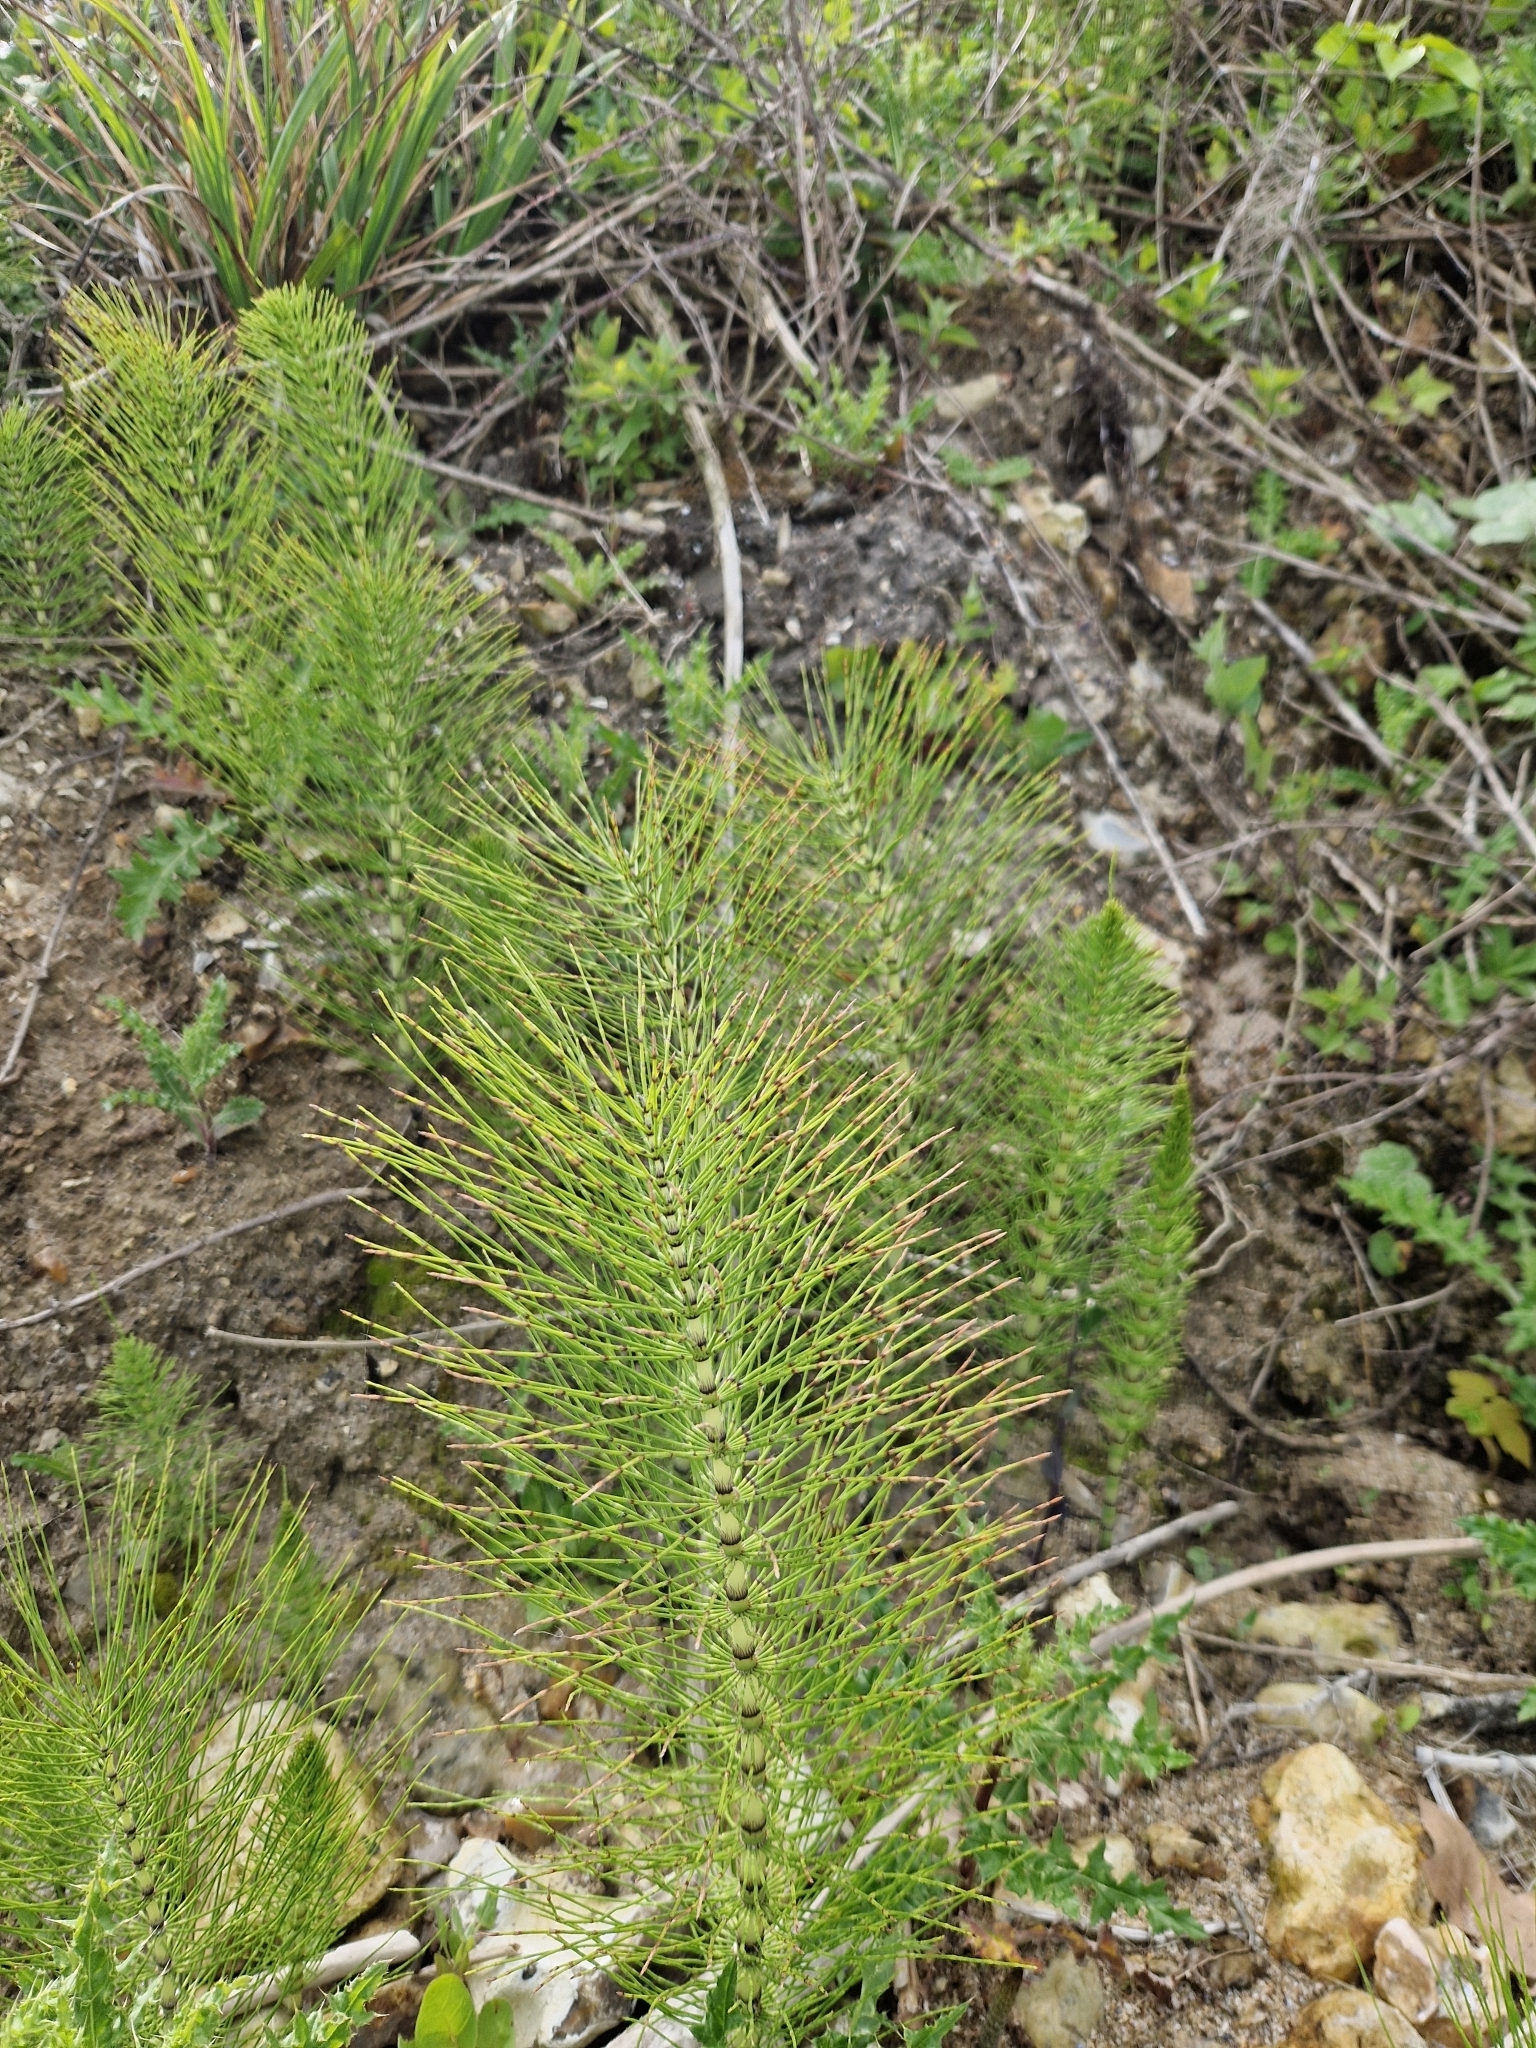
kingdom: Plantae
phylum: Tracheophyta
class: Polypodiopsida
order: Equisetales
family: Equisetaceae
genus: Equisetum
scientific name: Equisetum telmateia
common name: Great horsetail
